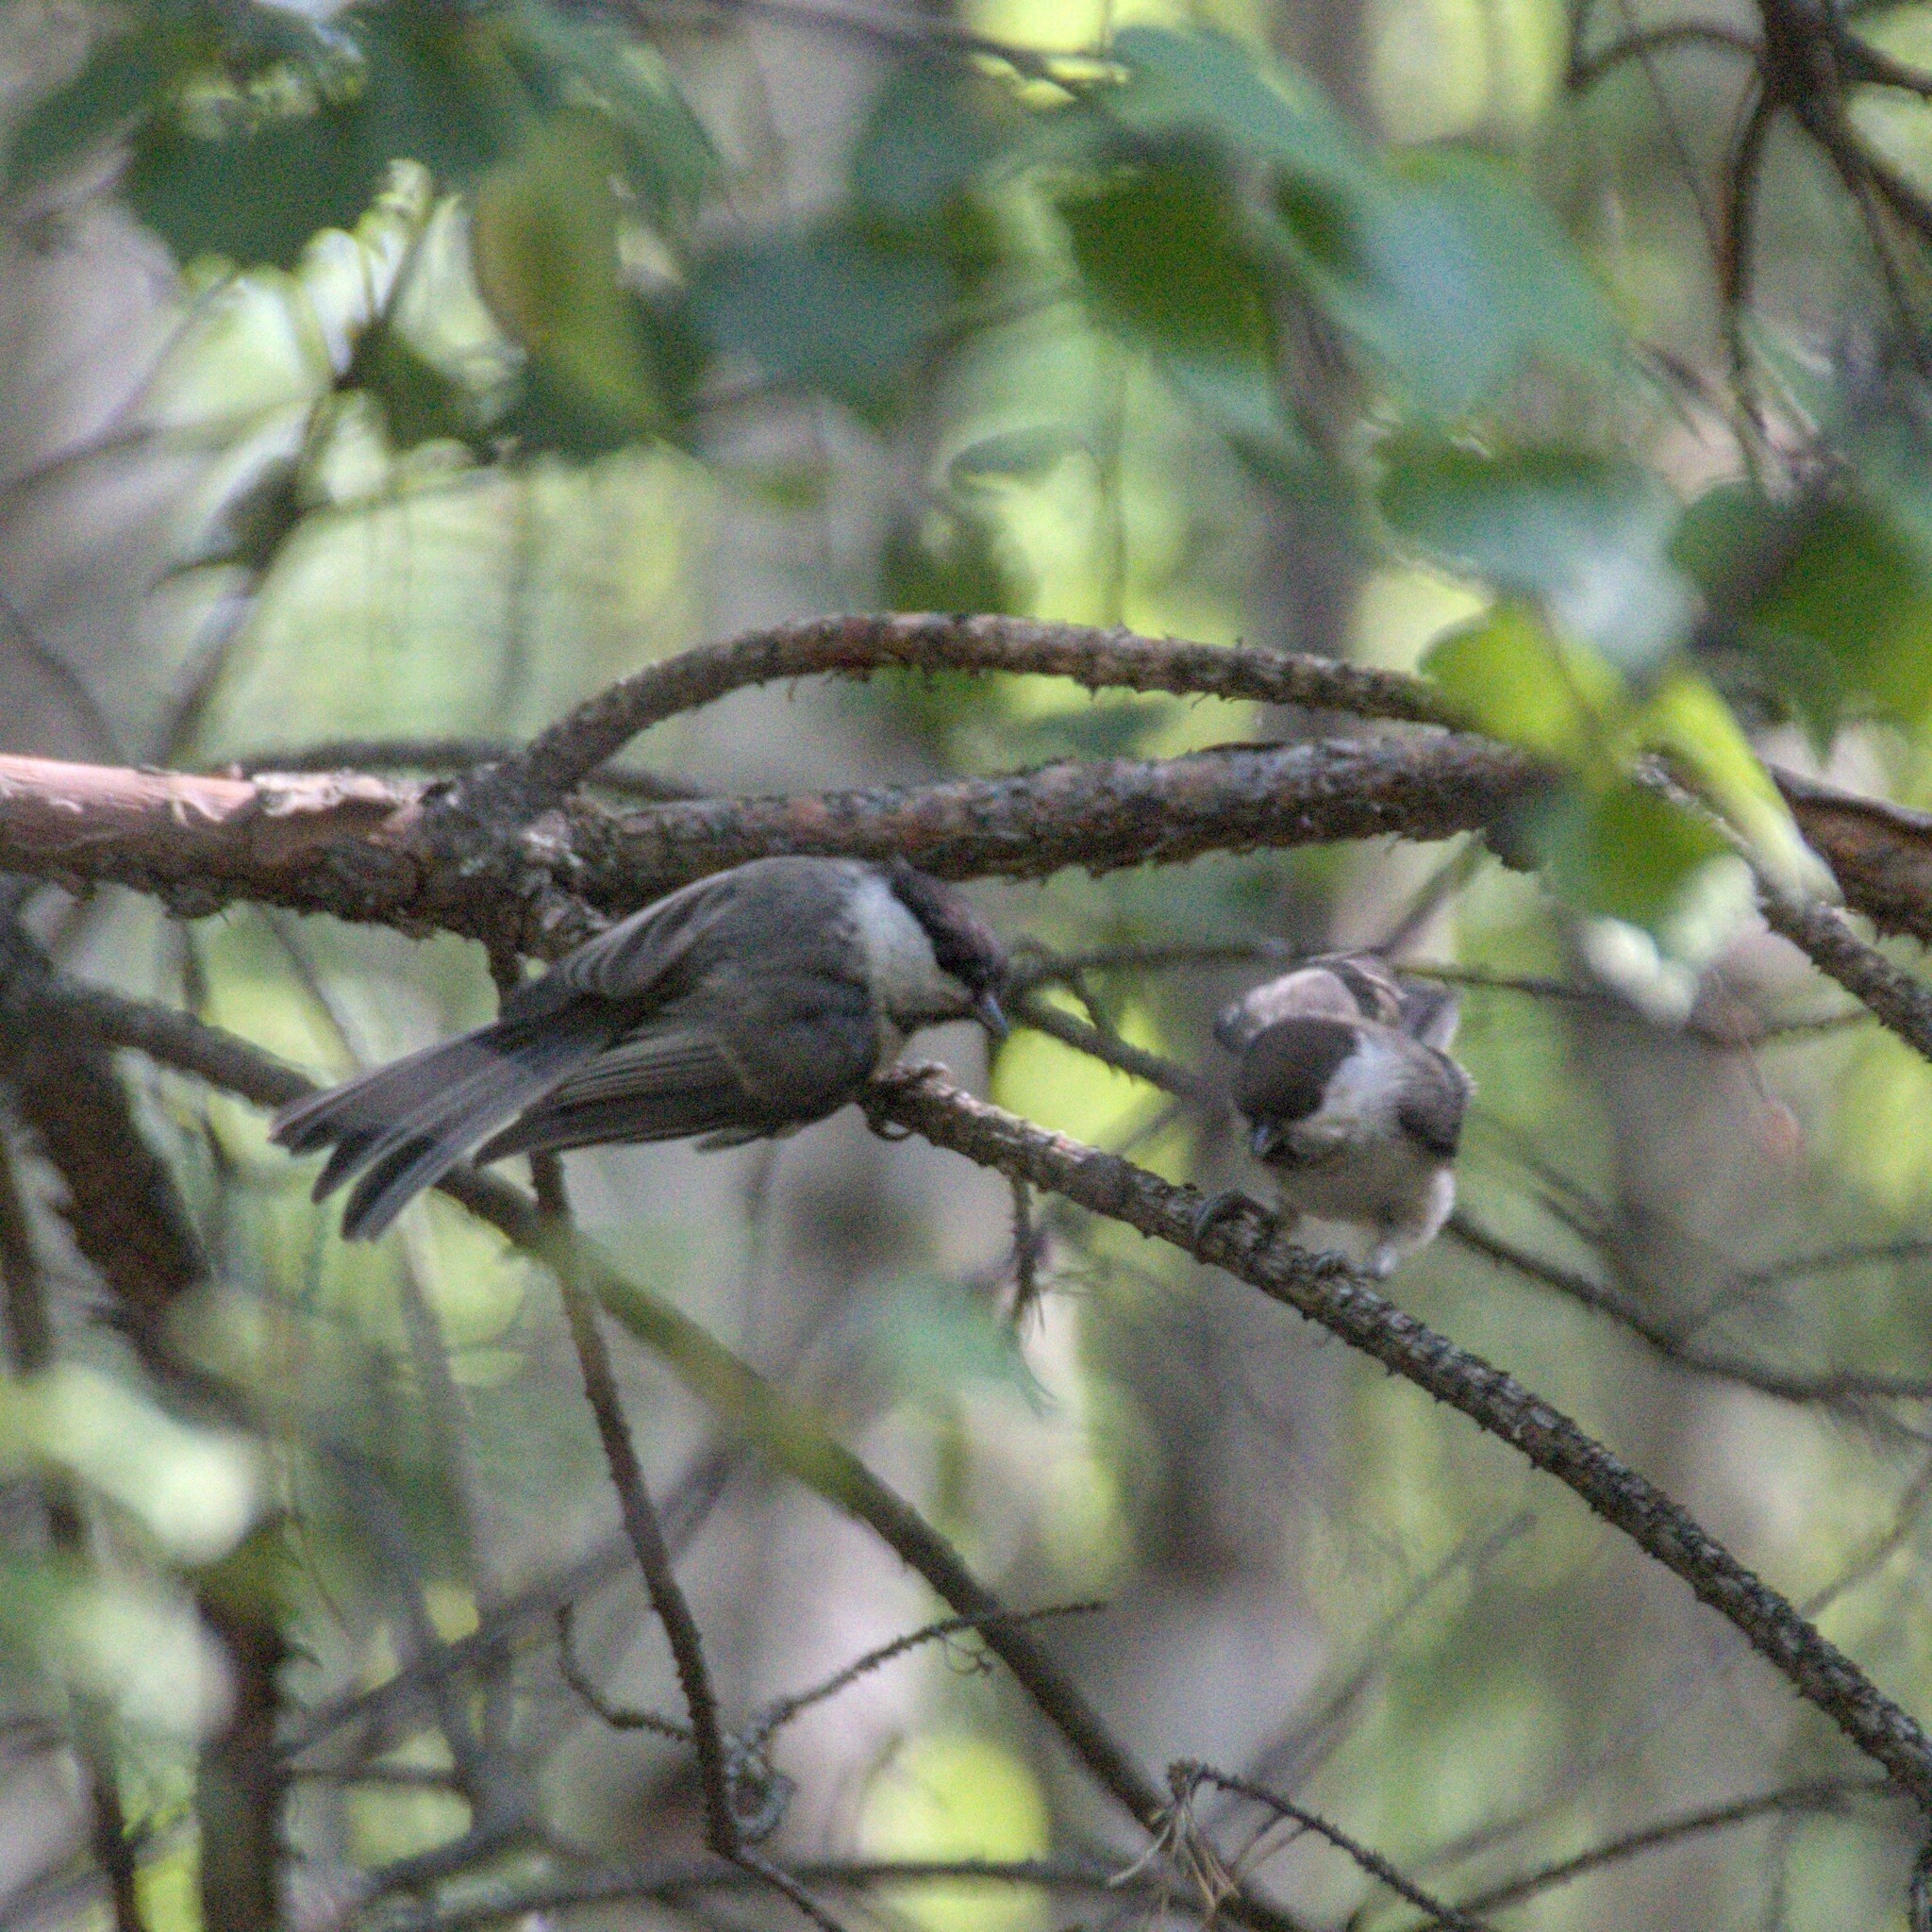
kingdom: Animalia
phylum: Chordata
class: Aves
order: Passeriformes
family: Paridae
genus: Poecile
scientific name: Poecile montanus
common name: Willow tit
